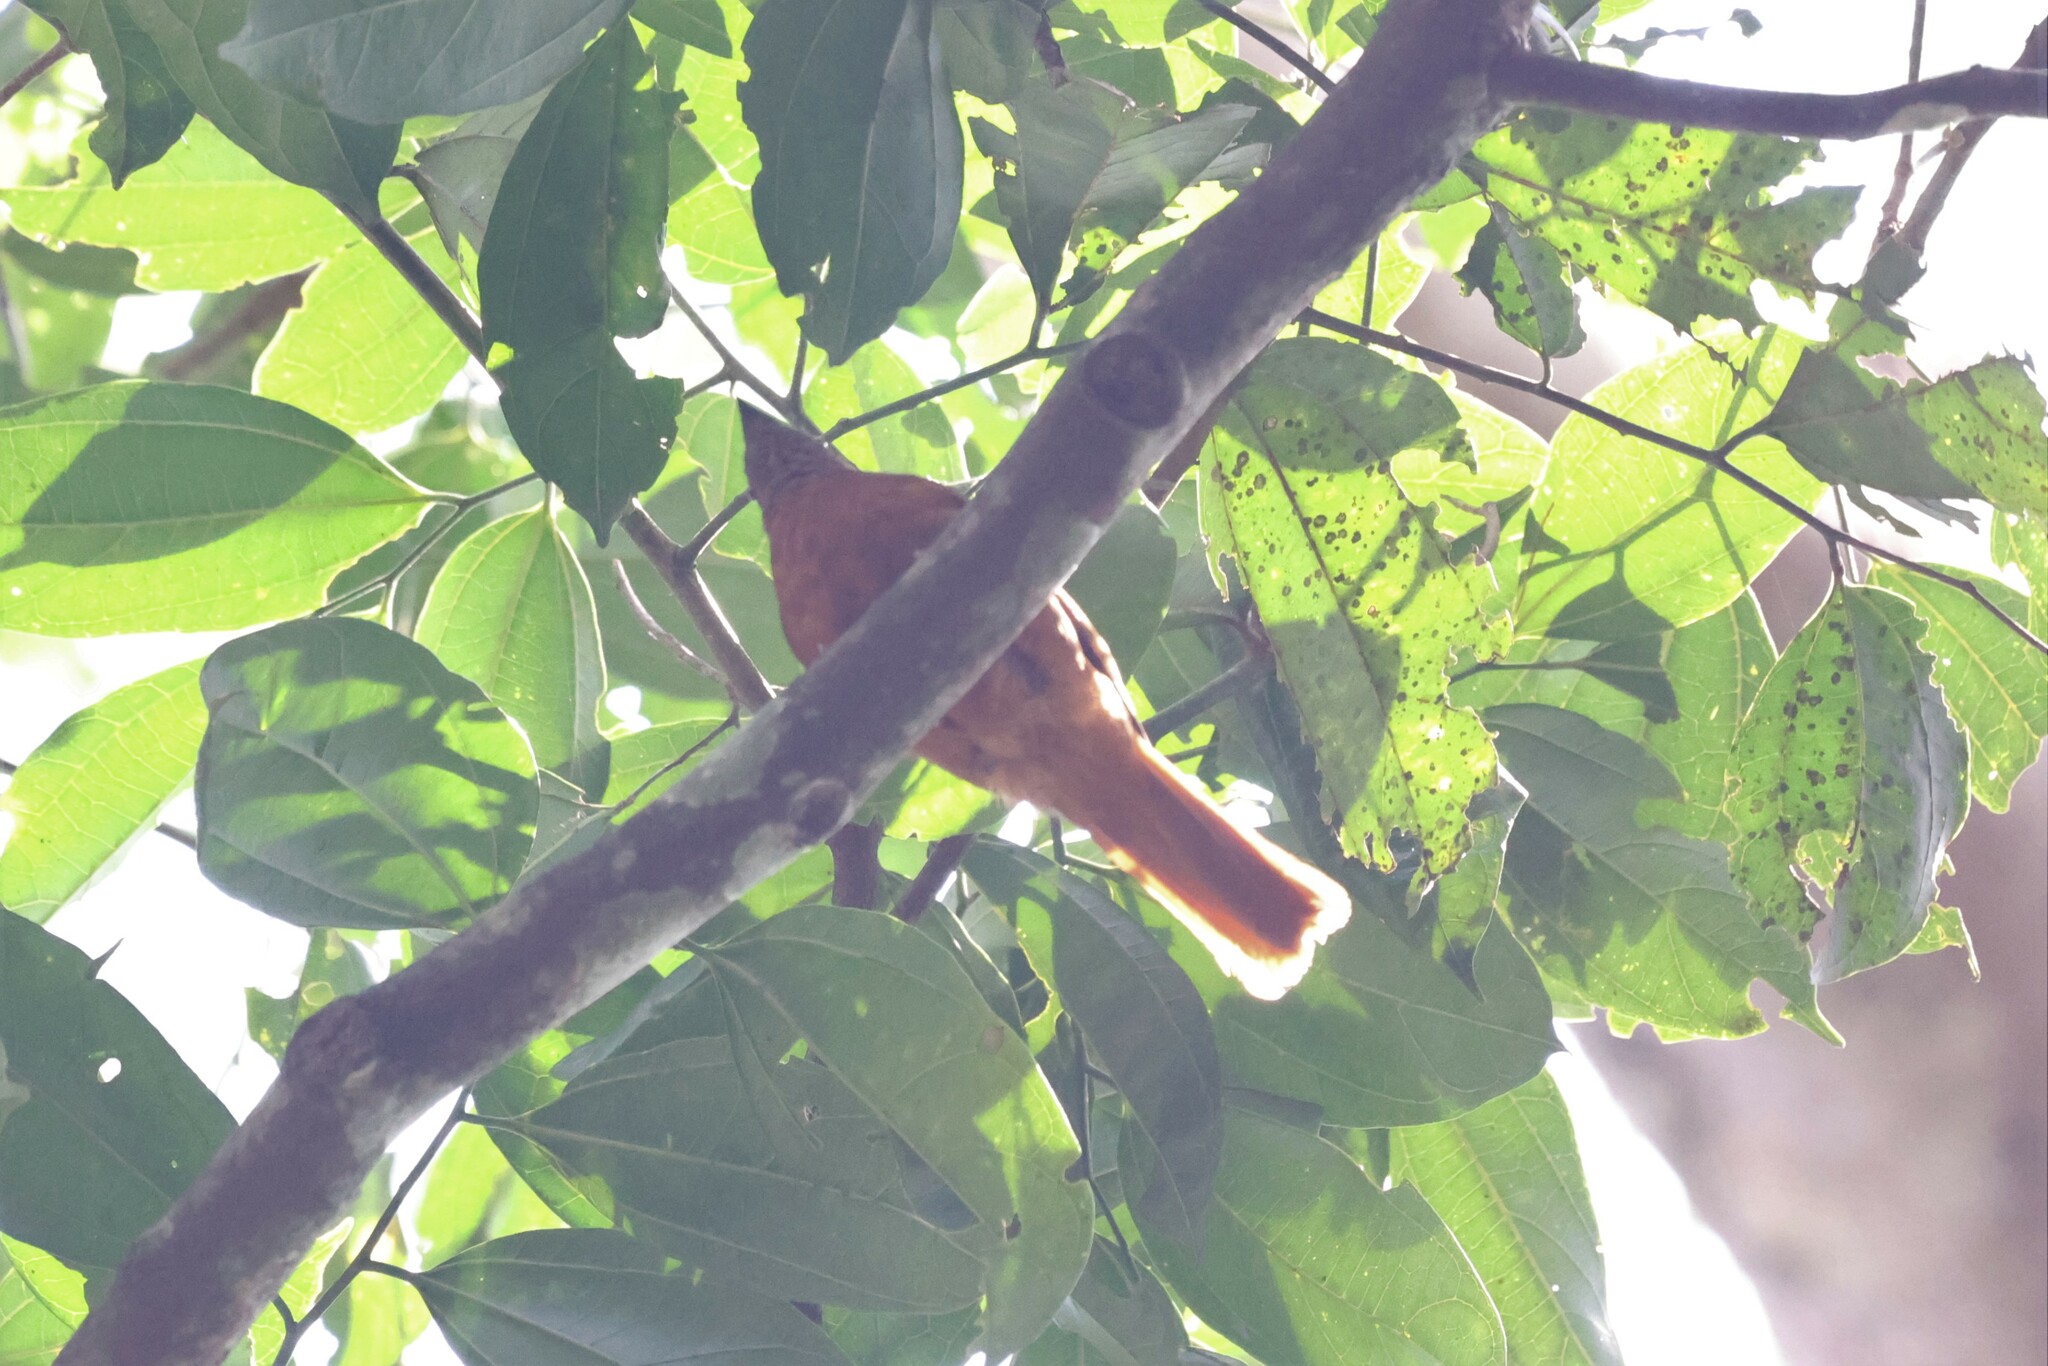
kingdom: Animalia
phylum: Chordata
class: Aves
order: Passeriformes
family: Turdidae
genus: Neocossyphus
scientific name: Neocossyphus rufus
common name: Red-tailed rufous thrush
